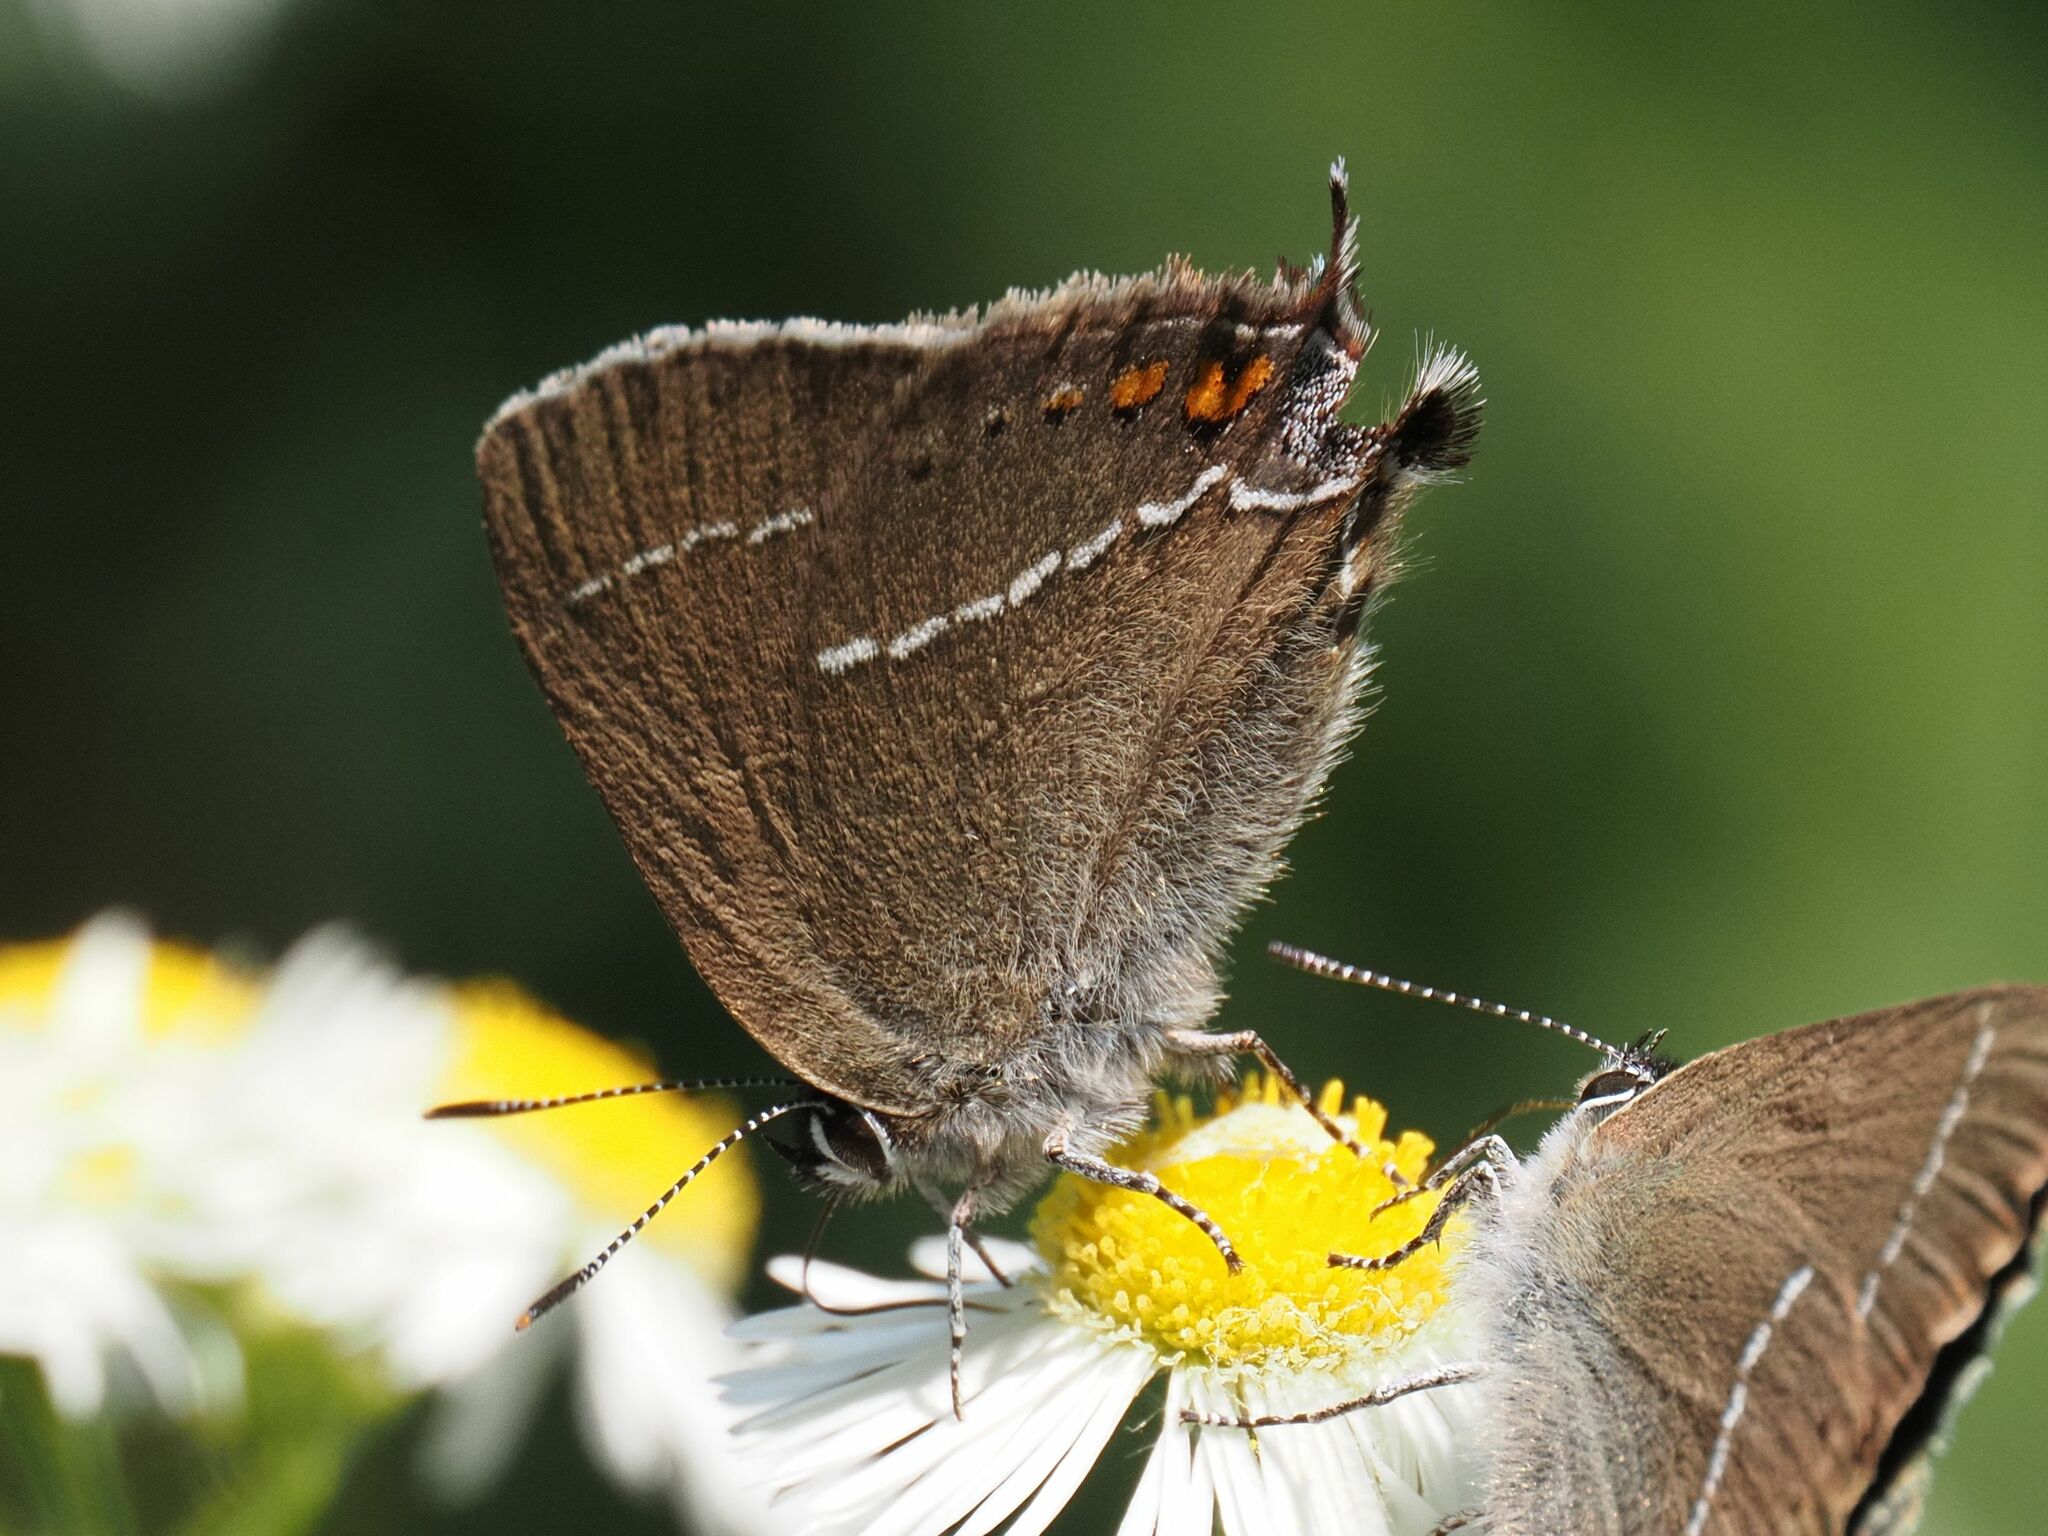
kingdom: Animalia
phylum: Arthropoda
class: Insecta
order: Lepidoptera
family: Lycaenidae
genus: Tuttiola
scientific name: Tuttiola spini
